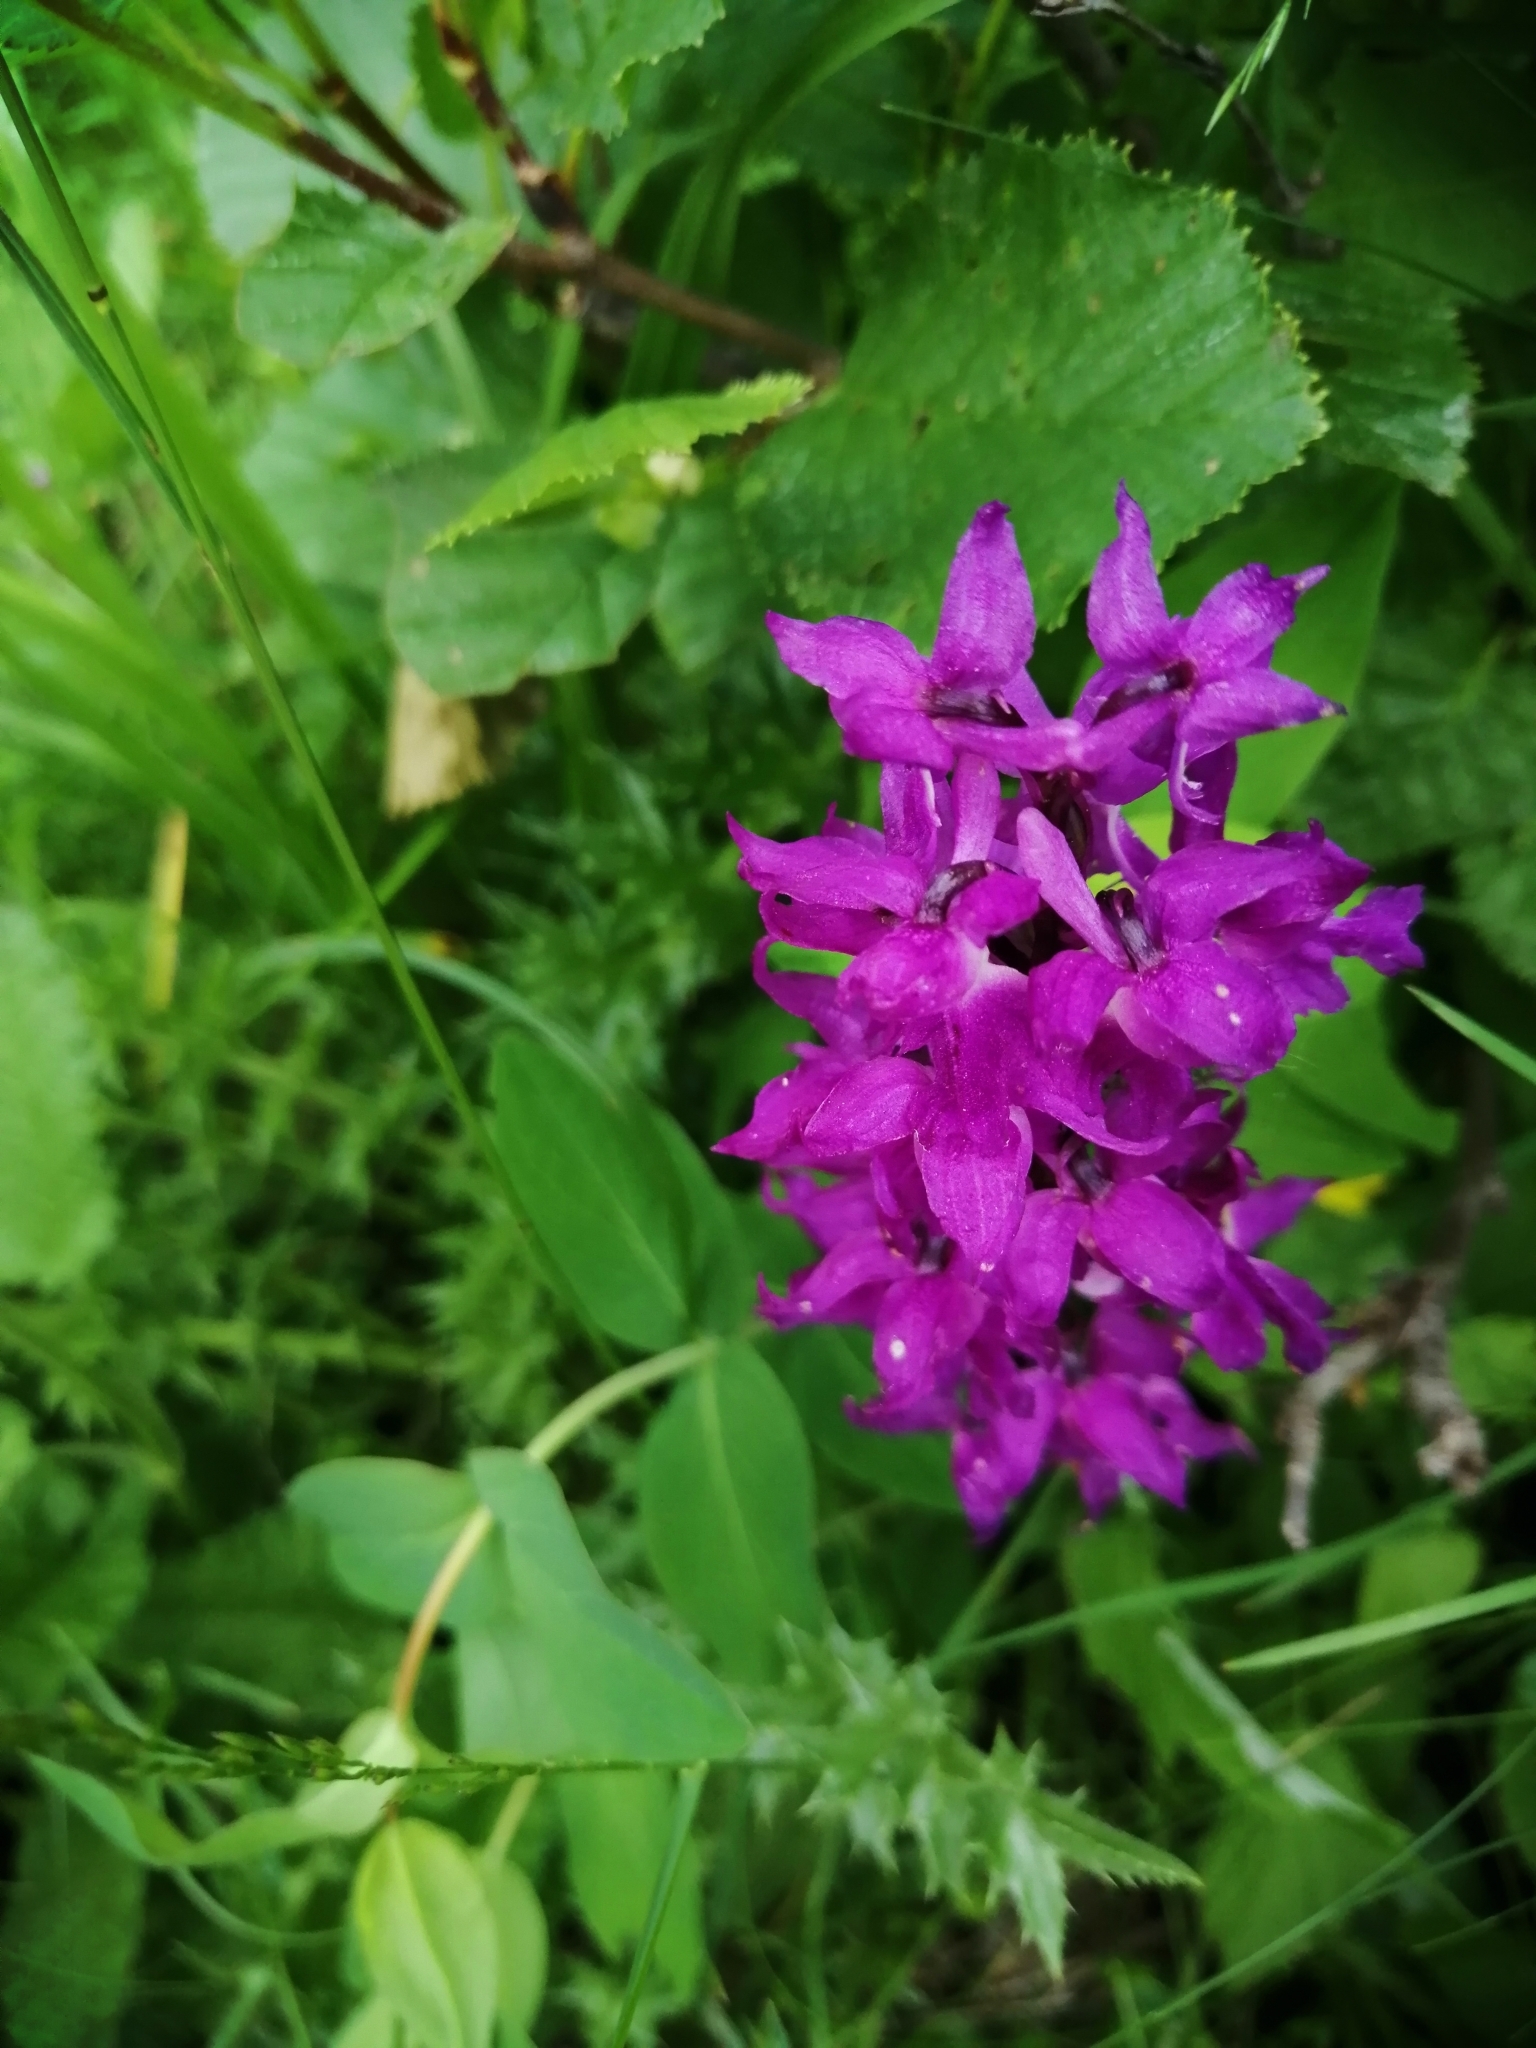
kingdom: Plantae
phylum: Tracheophyta
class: Liliopsida
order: Asparagales
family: Orchidaceae
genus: Orchis
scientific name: Orchis mascula
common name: Early-purple orchid
